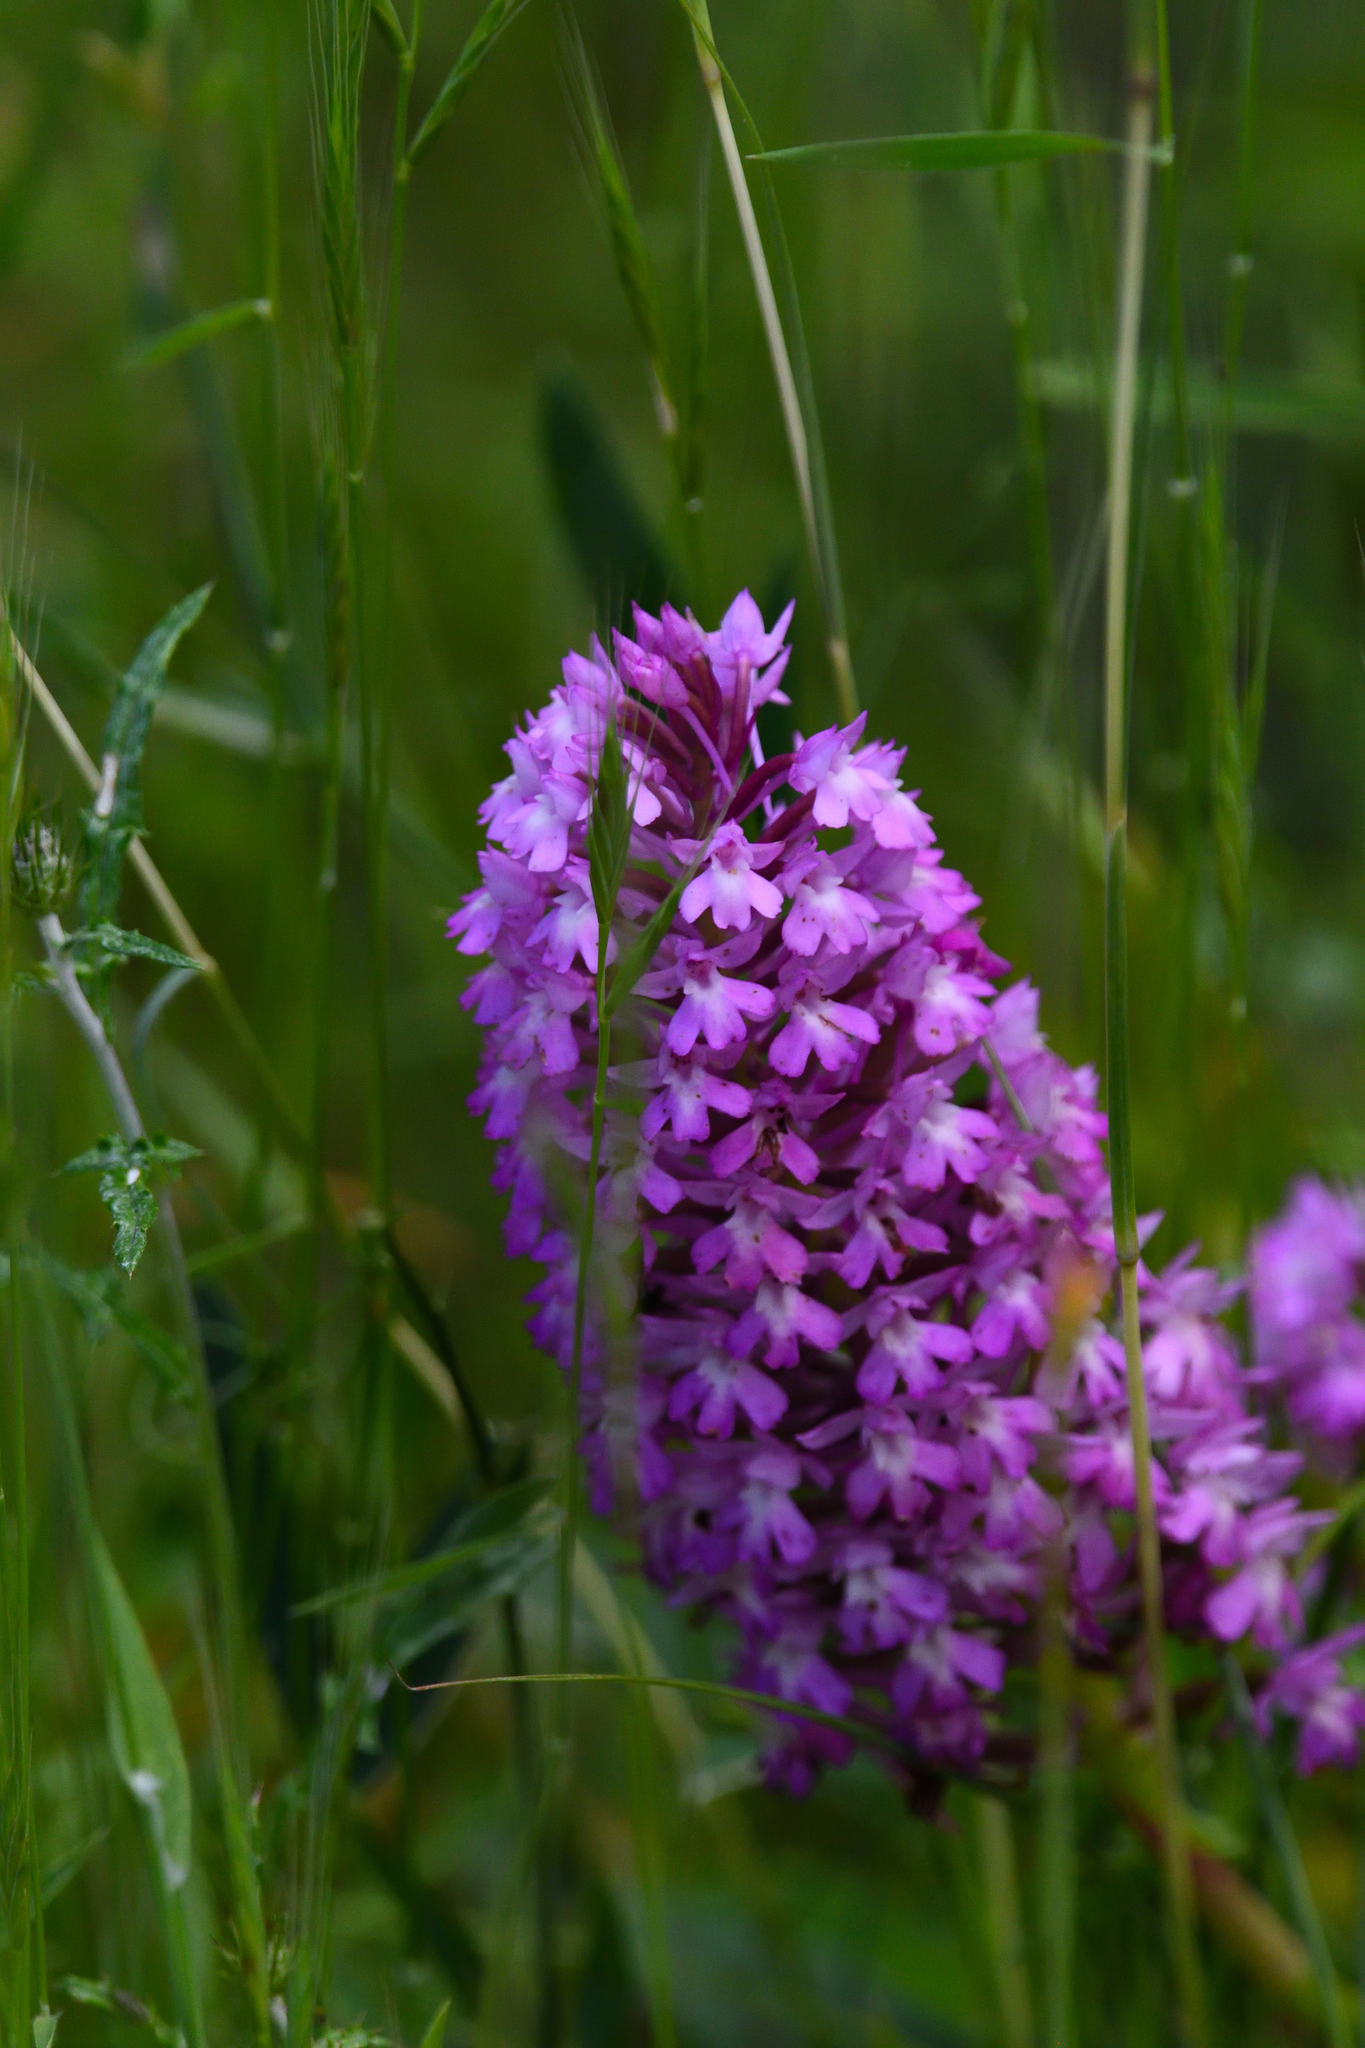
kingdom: Plantae
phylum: Tracheophyta
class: Liliopsida
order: Asparagales
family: Orchidaceae
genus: Anacamptis
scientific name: Anacamptis pyramidalis
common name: Pyramidal orchid
